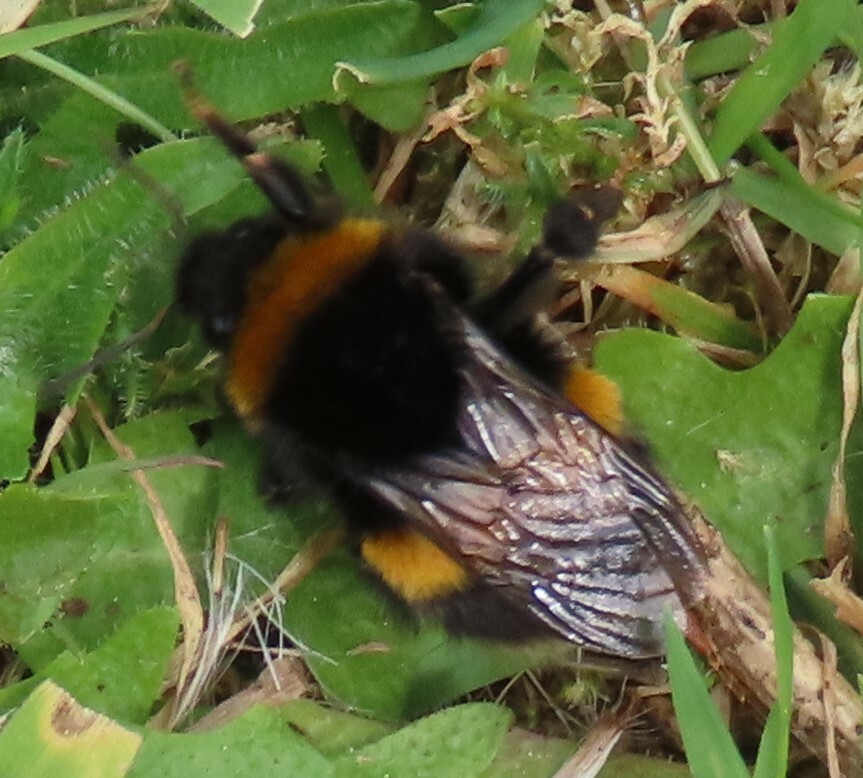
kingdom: Animalia
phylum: Arthropoda
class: Insecta
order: Hymenoptera
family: Apidae
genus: Bombus
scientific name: Bombus terrestris
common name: Buff-tailed bumblebee
